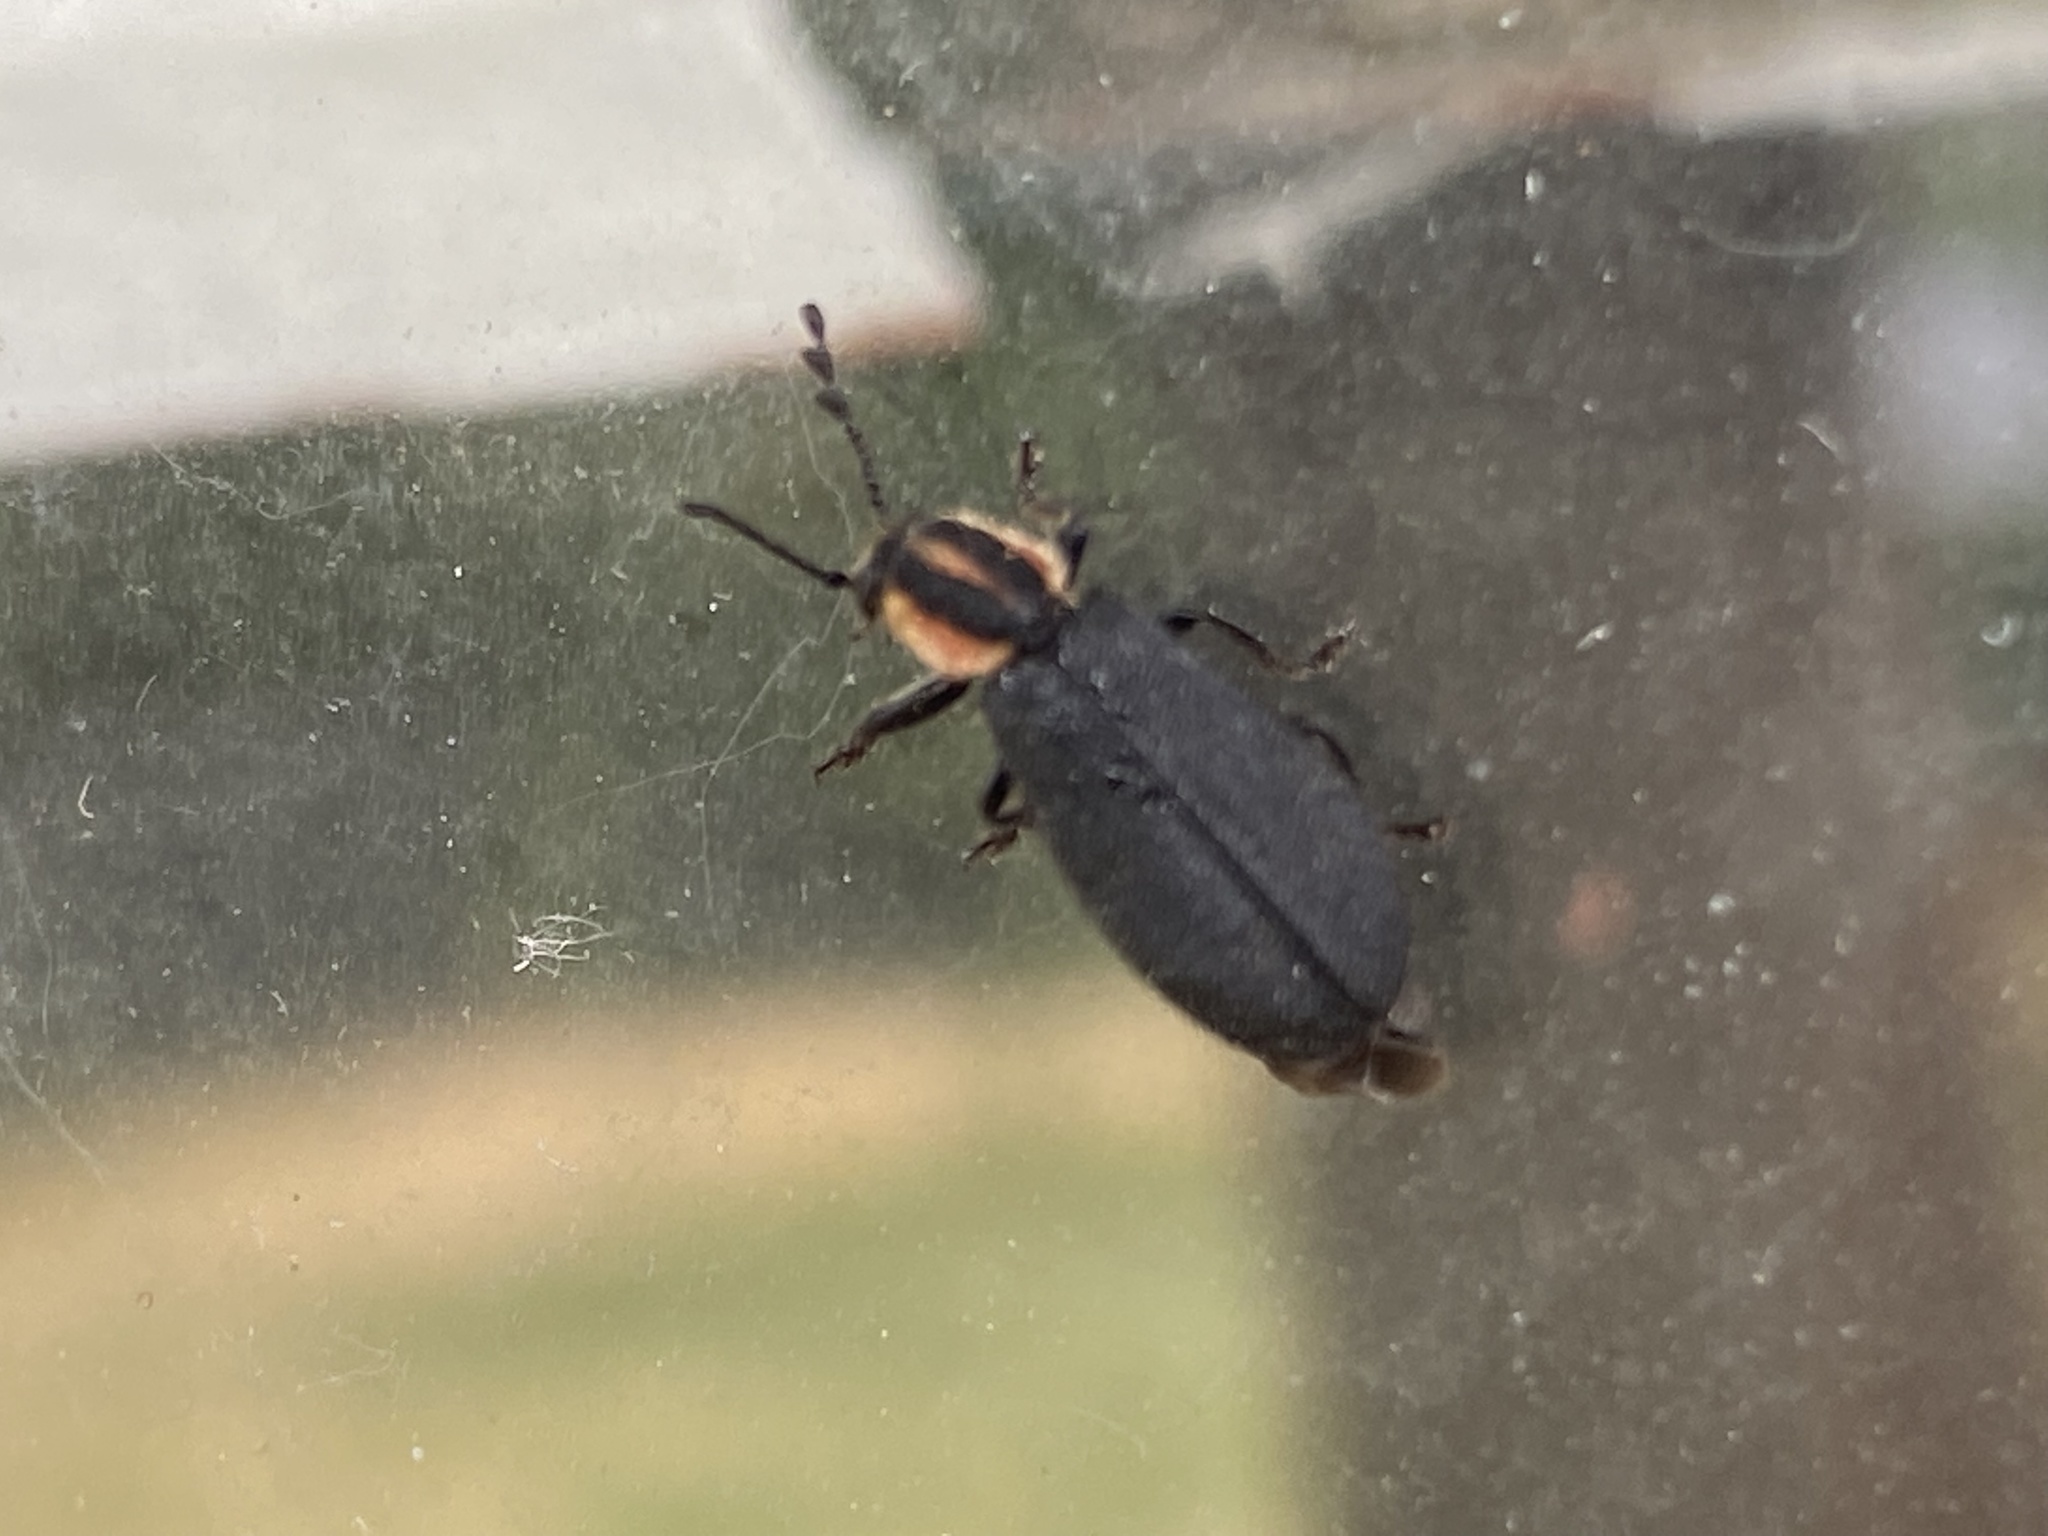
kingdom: Animalia
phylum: Arthropoda
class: Insecta
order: Coleoptera
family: Cleridae
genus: Chariessa
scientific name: Chariessa pilosa
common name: Pilose checkered beetle
